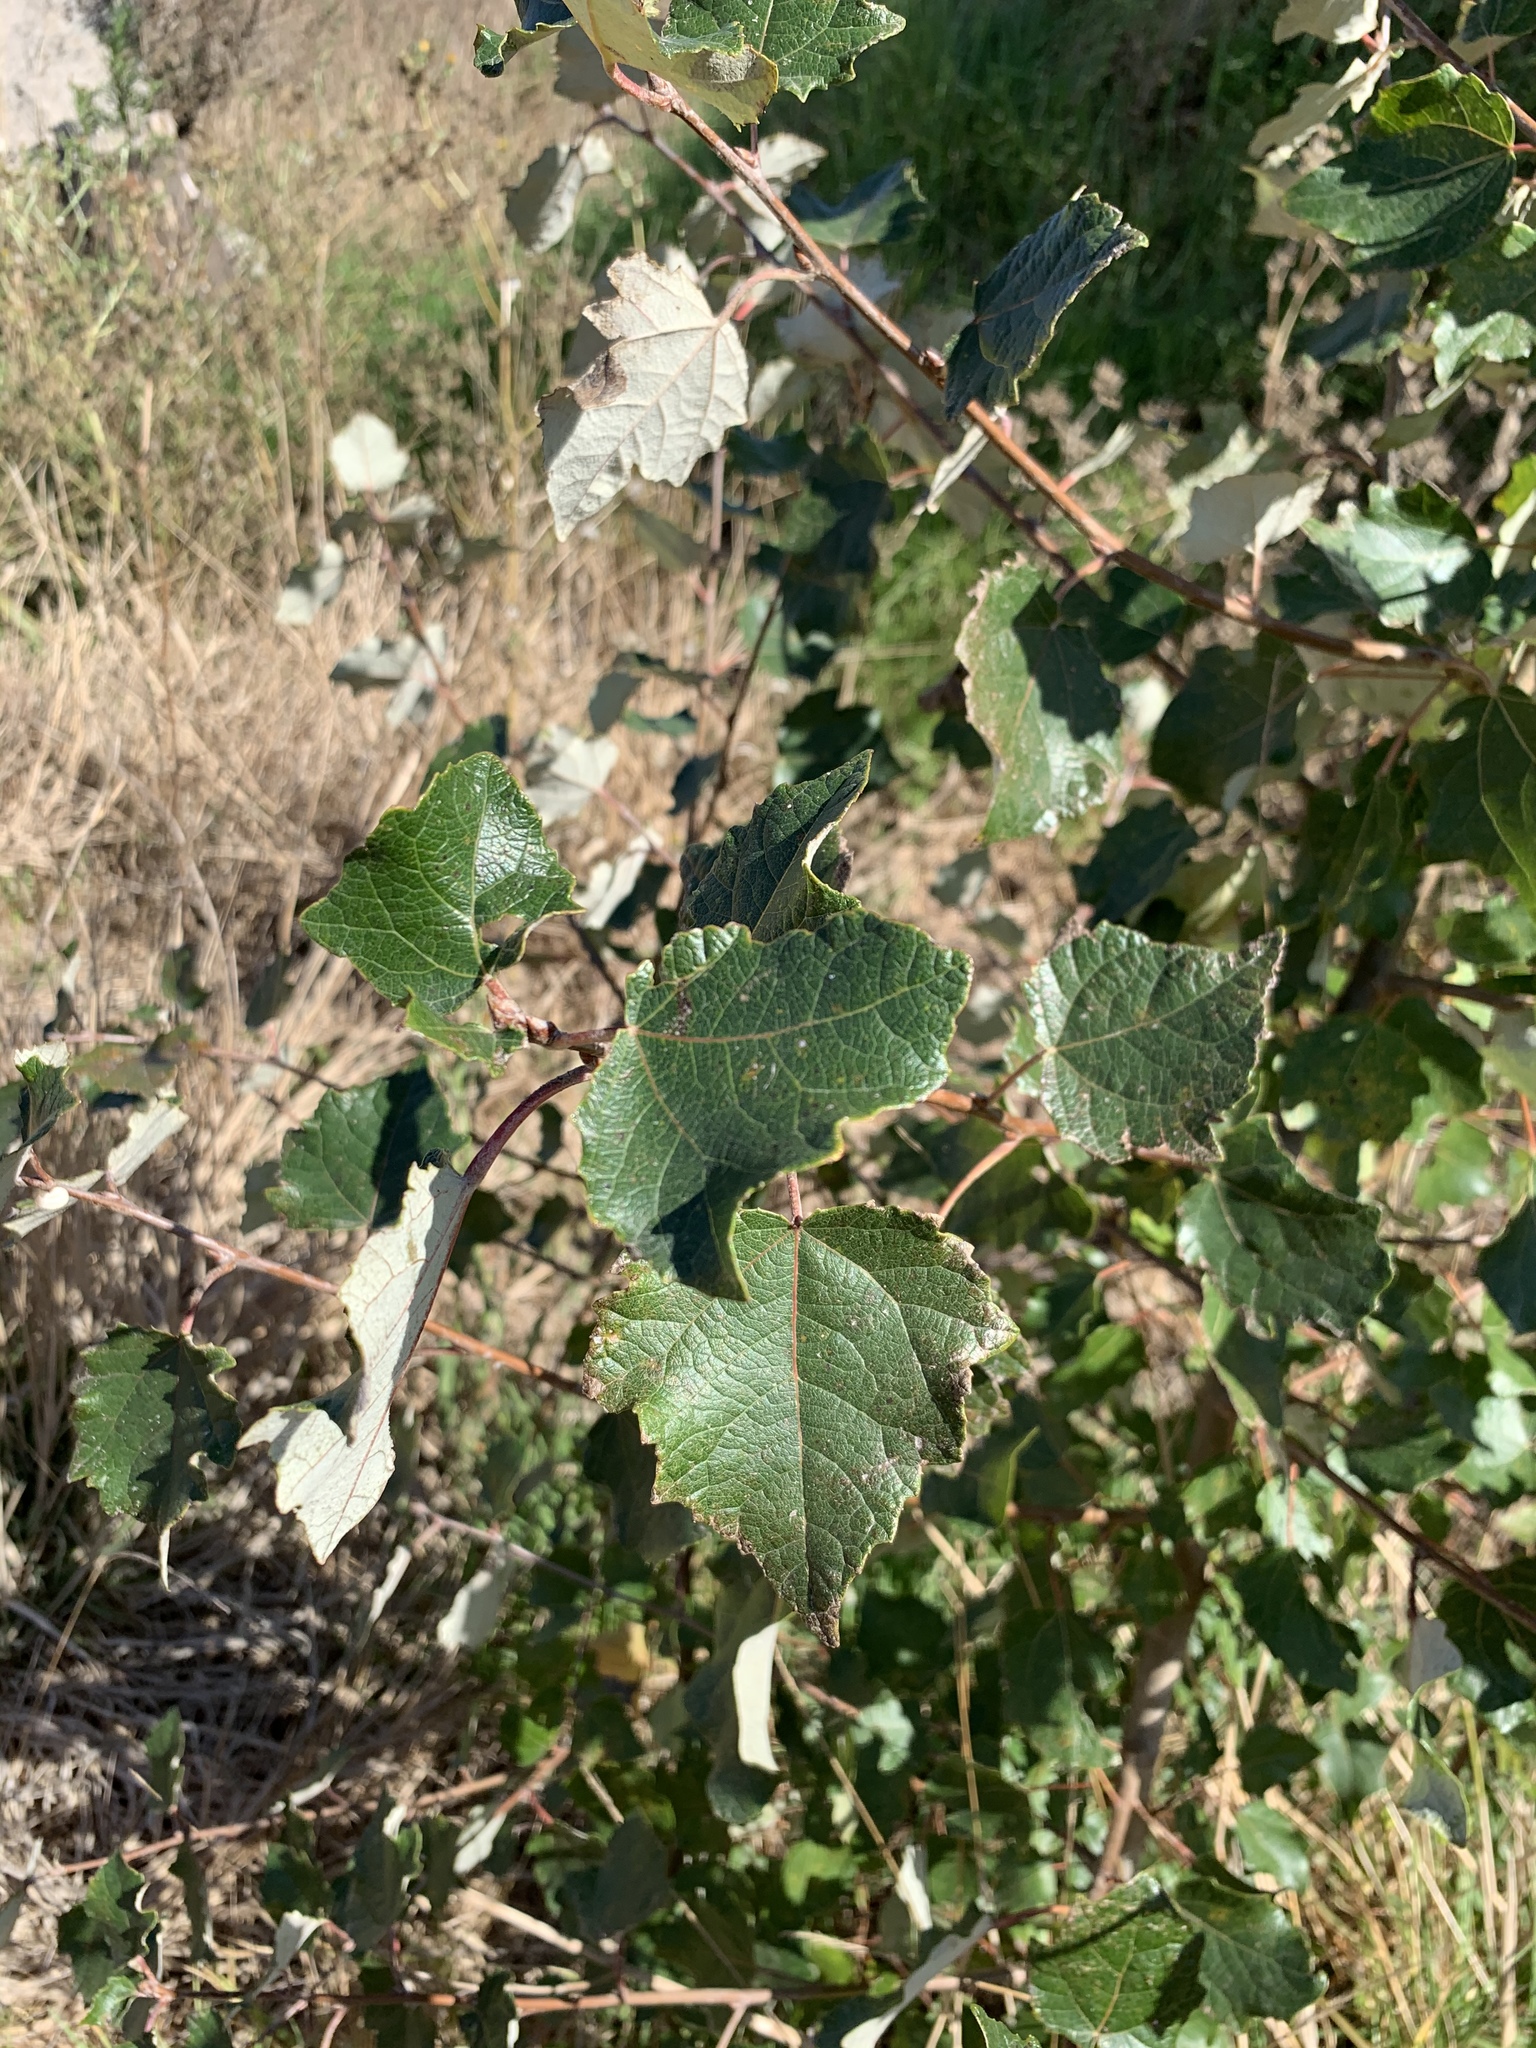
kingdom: Plantae
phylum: Tracheophyta
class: Magnoliopsida
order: Malpighiales
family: Salicaceae
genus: Populus
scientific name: Populus canescens
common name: Gray poplar
